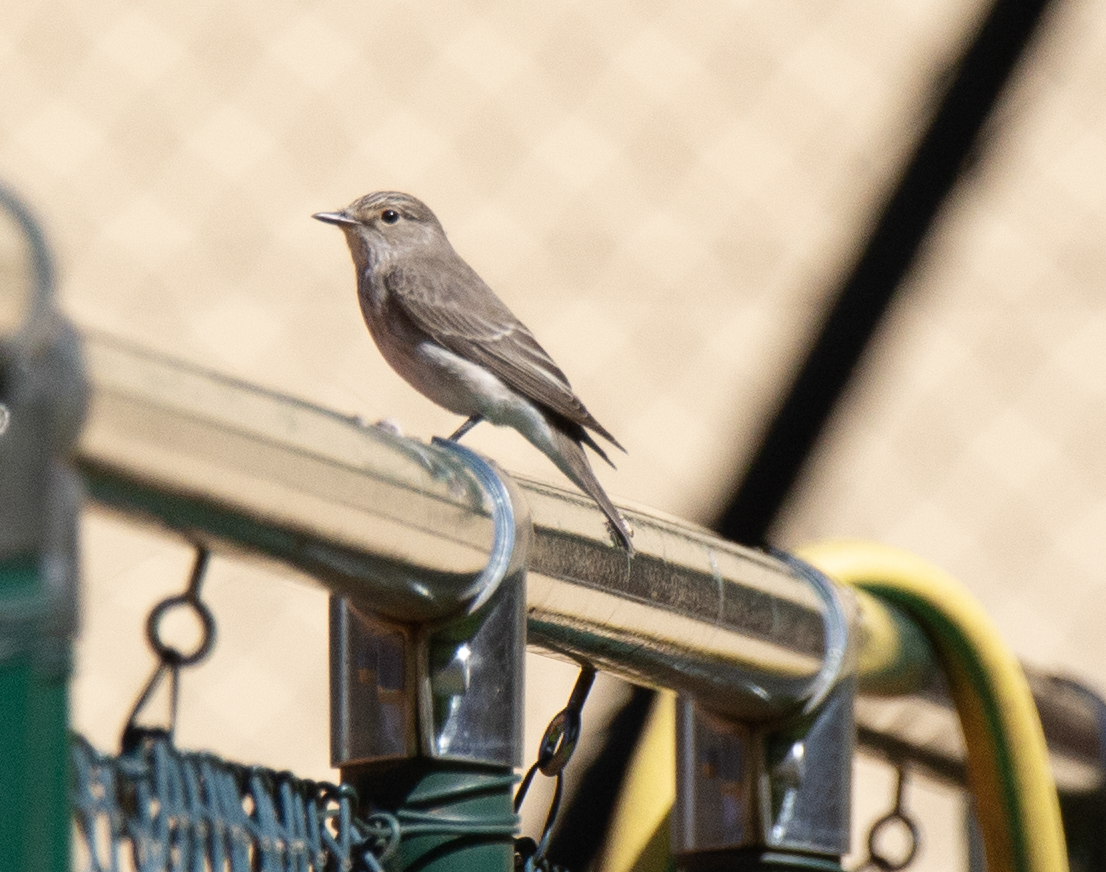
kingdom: Animalia
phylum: Chordata
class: Aves
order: Passeriformes
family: Muscicapidae
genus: Muscicapa
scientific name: Muscicapa striata
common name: Spotted flycatcher
